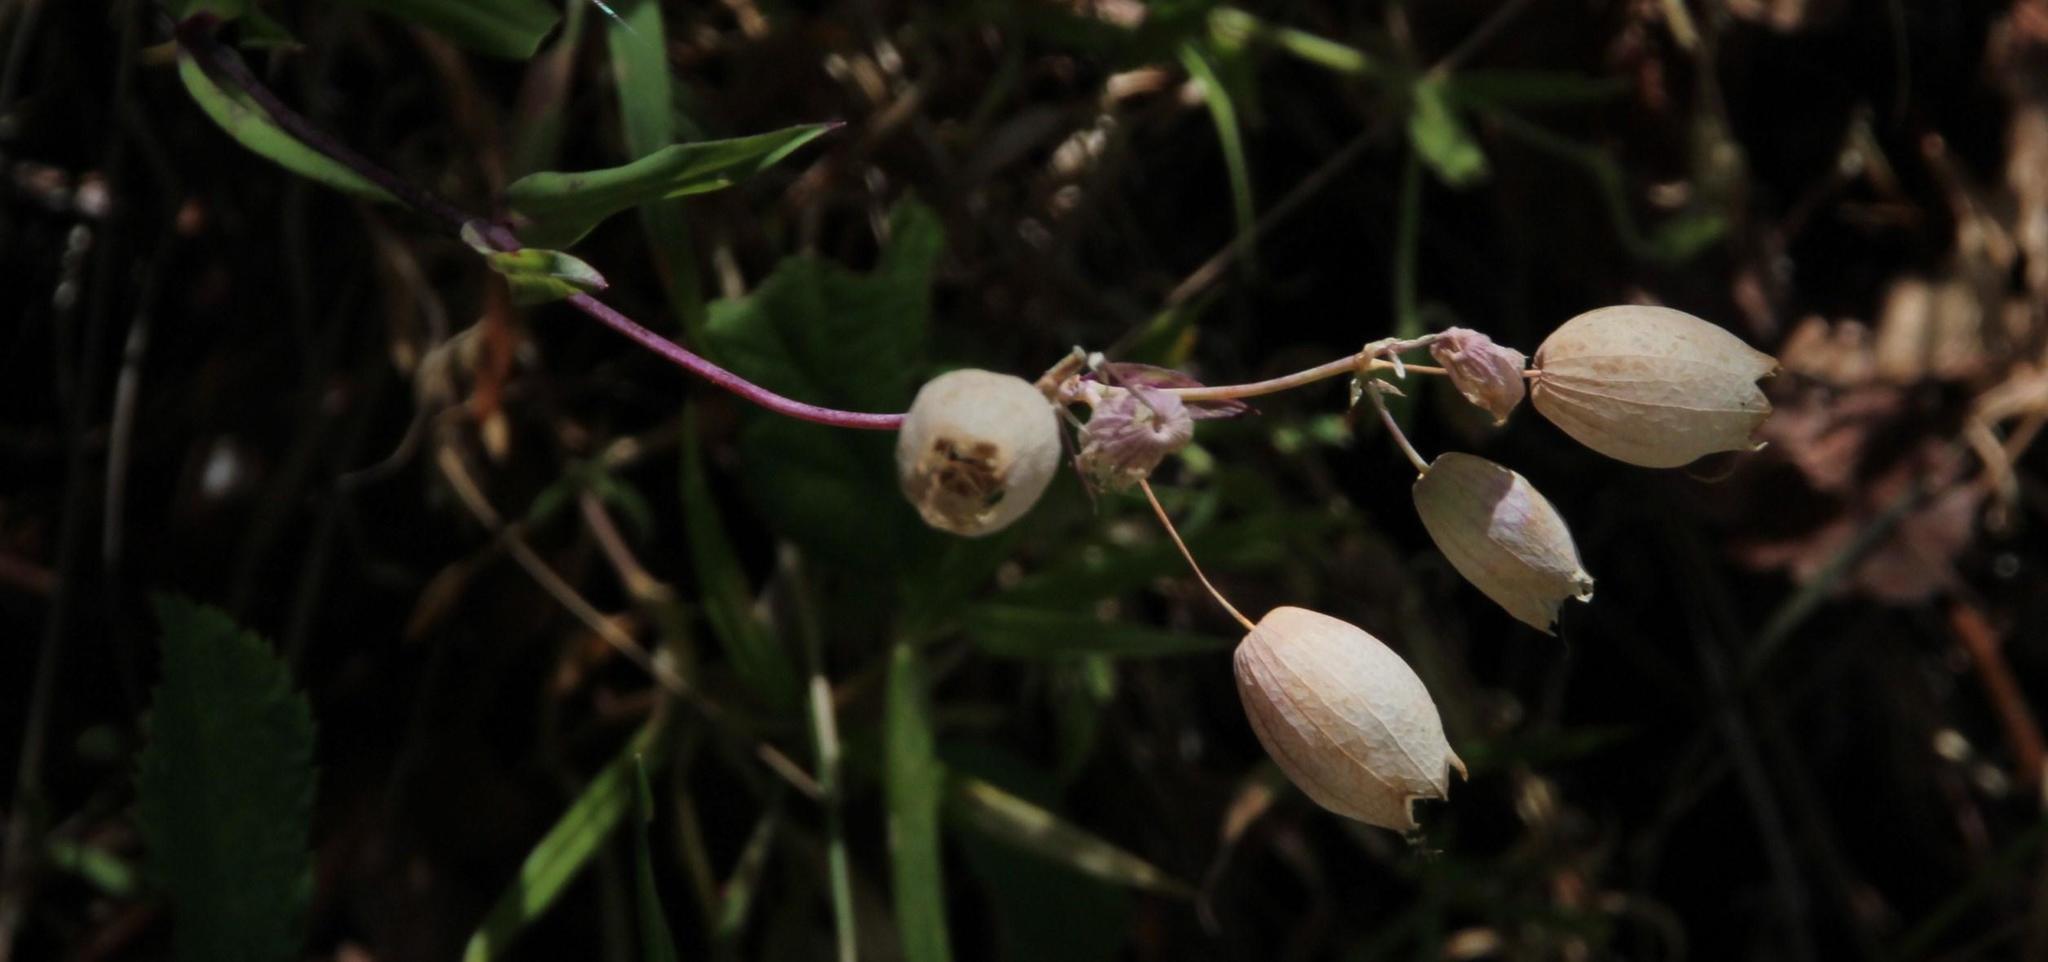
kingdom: Plantae
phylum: Tracheophyta
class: Magnoliopsida
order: Caryophyllales
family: Caryophyllaceae
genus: Silene
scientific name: Silene vulgaris
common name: Bladder campion
